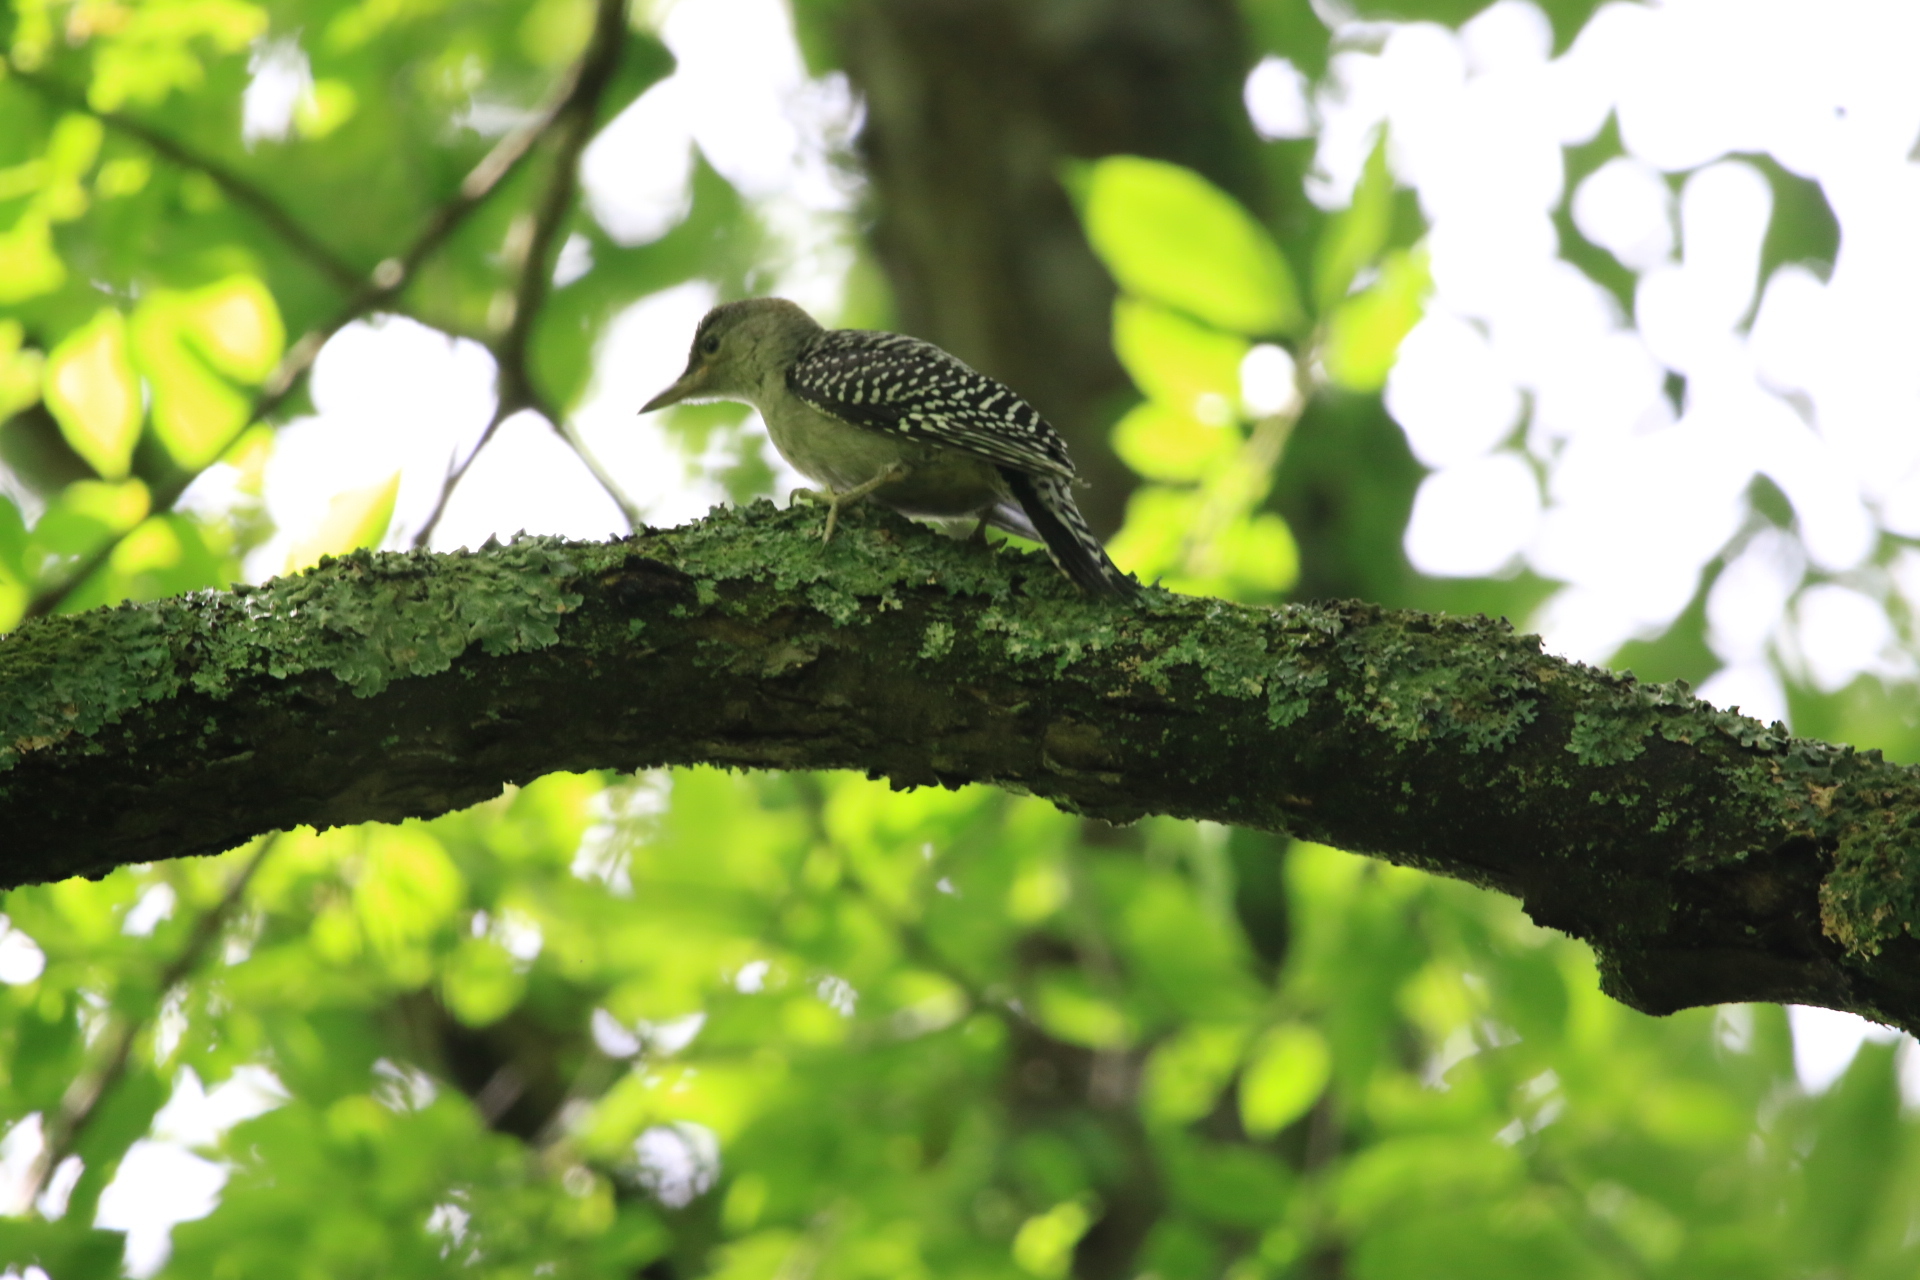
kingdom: Animalia
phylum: Chordata
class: Aves
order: Piciformes
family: Picidae
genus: Melanerpes
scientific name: Melanerpes carolinus
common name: Red-bellied woodpecker
